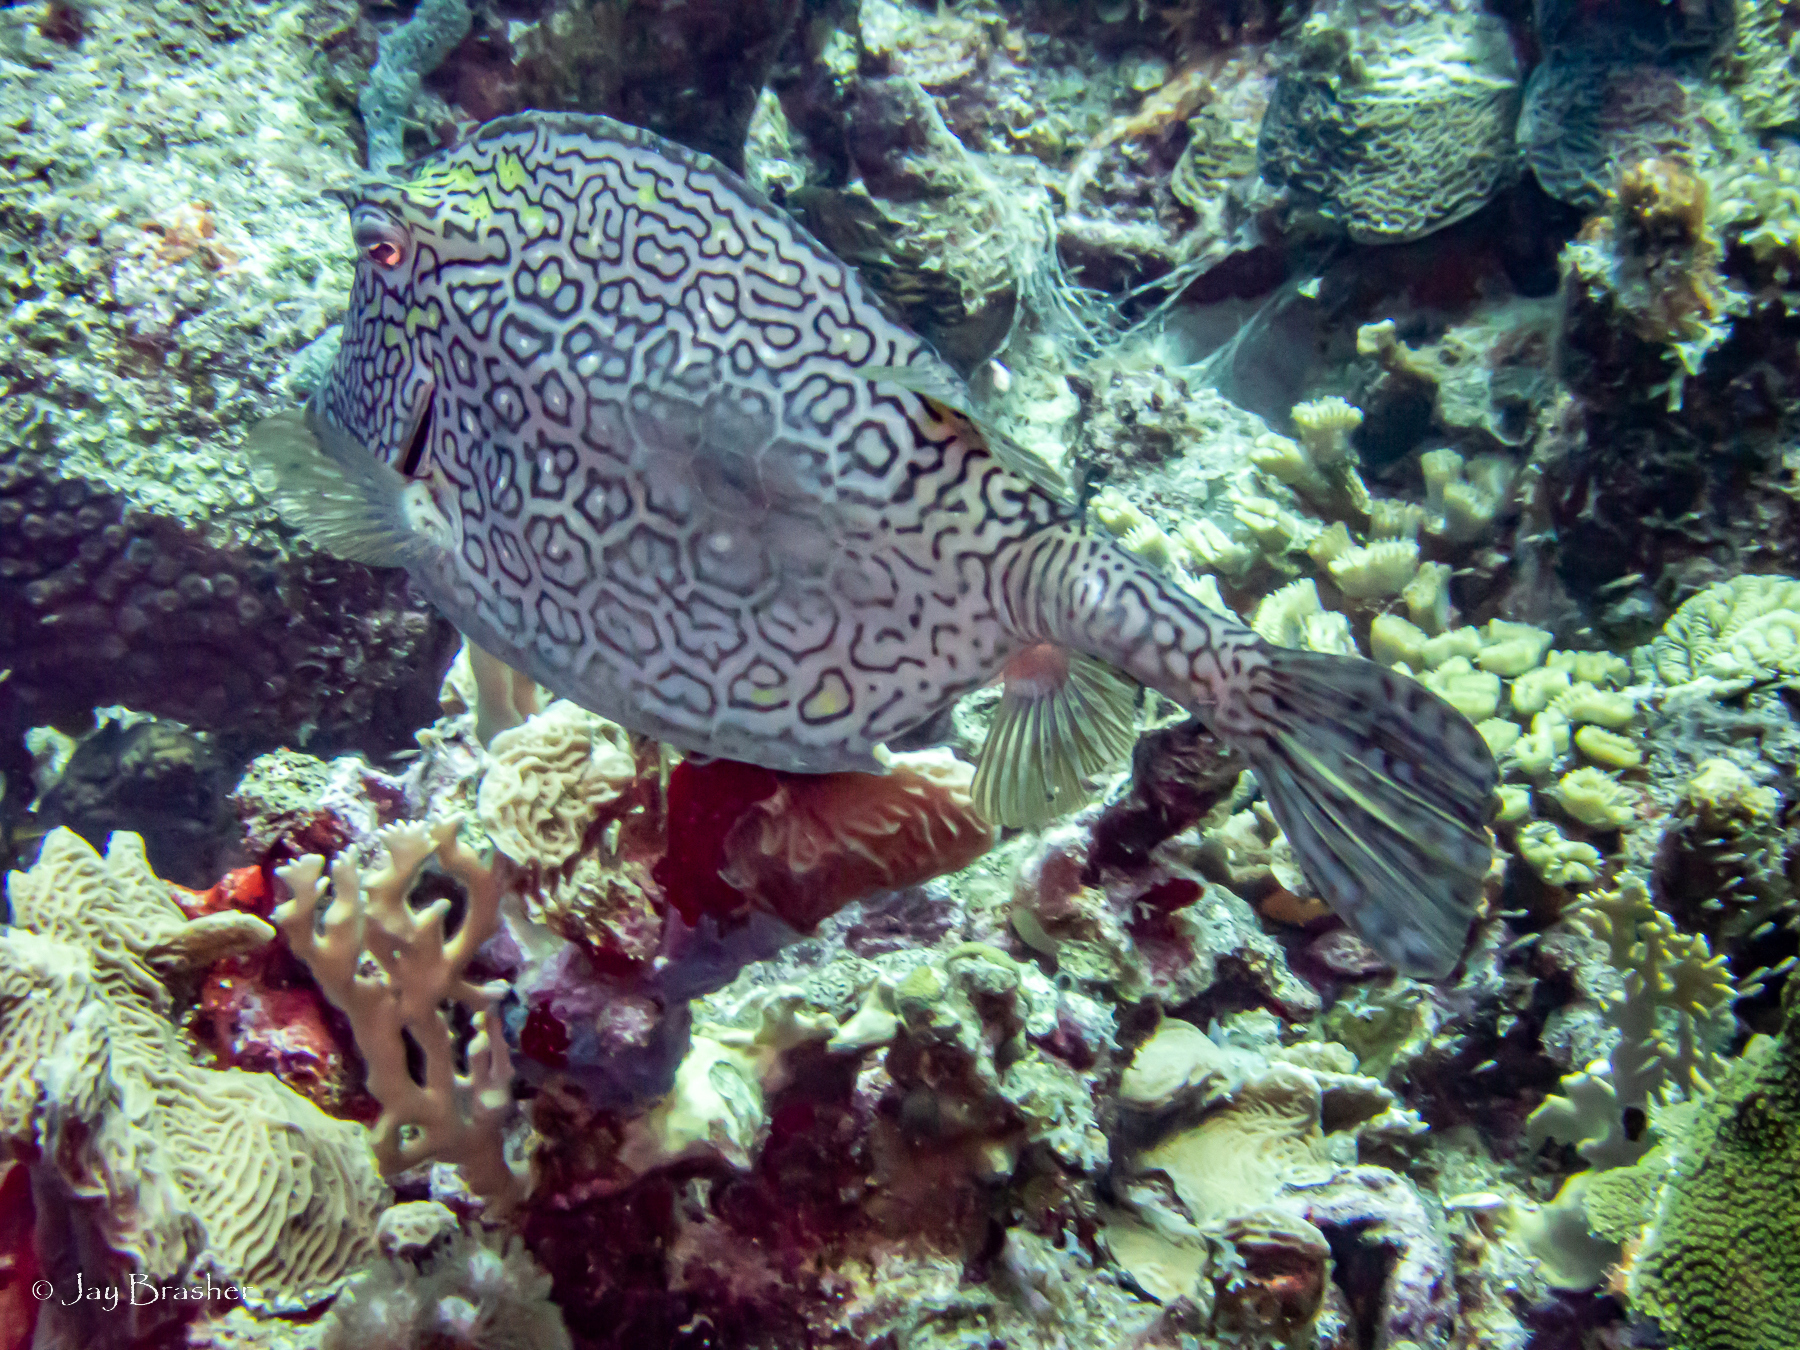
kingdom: Animalia
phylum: Chordata
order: Tetraodontiformes
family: Ostraciidae
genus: Acanthostracion
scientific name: Acanthostracion polygonius
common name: Honeycomb cowfish
